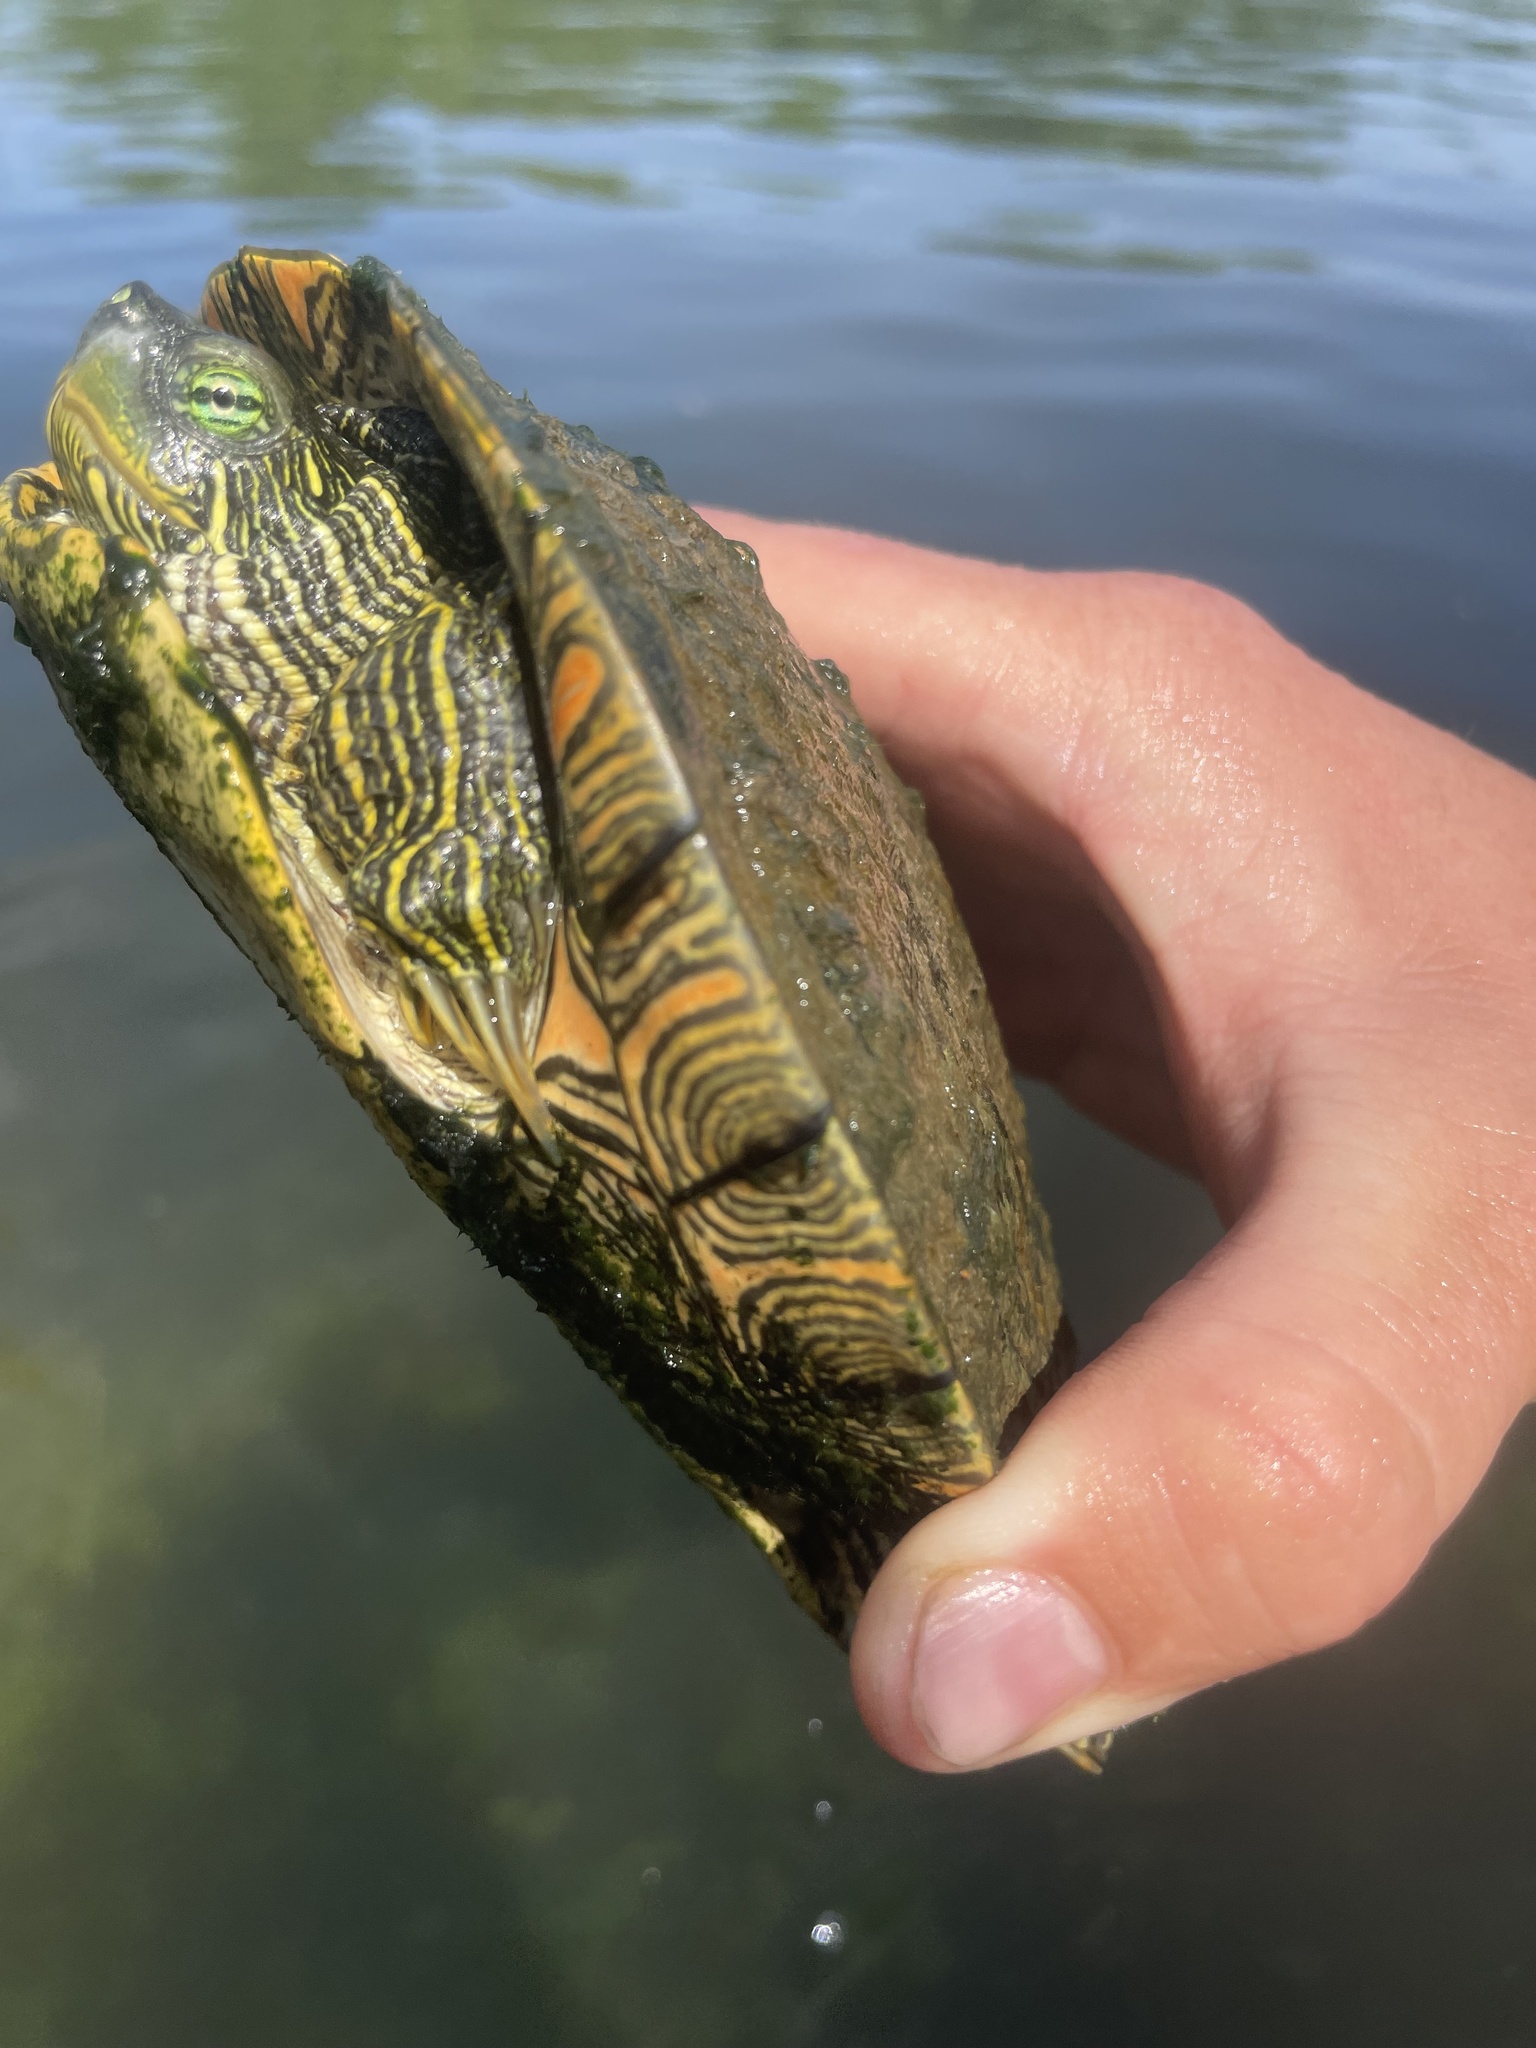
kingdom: Animalia
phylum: Chordata
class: Testudines
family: Emydidae
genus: Pseudemys
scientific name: Pseudemys texana
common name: Texas river cooter
